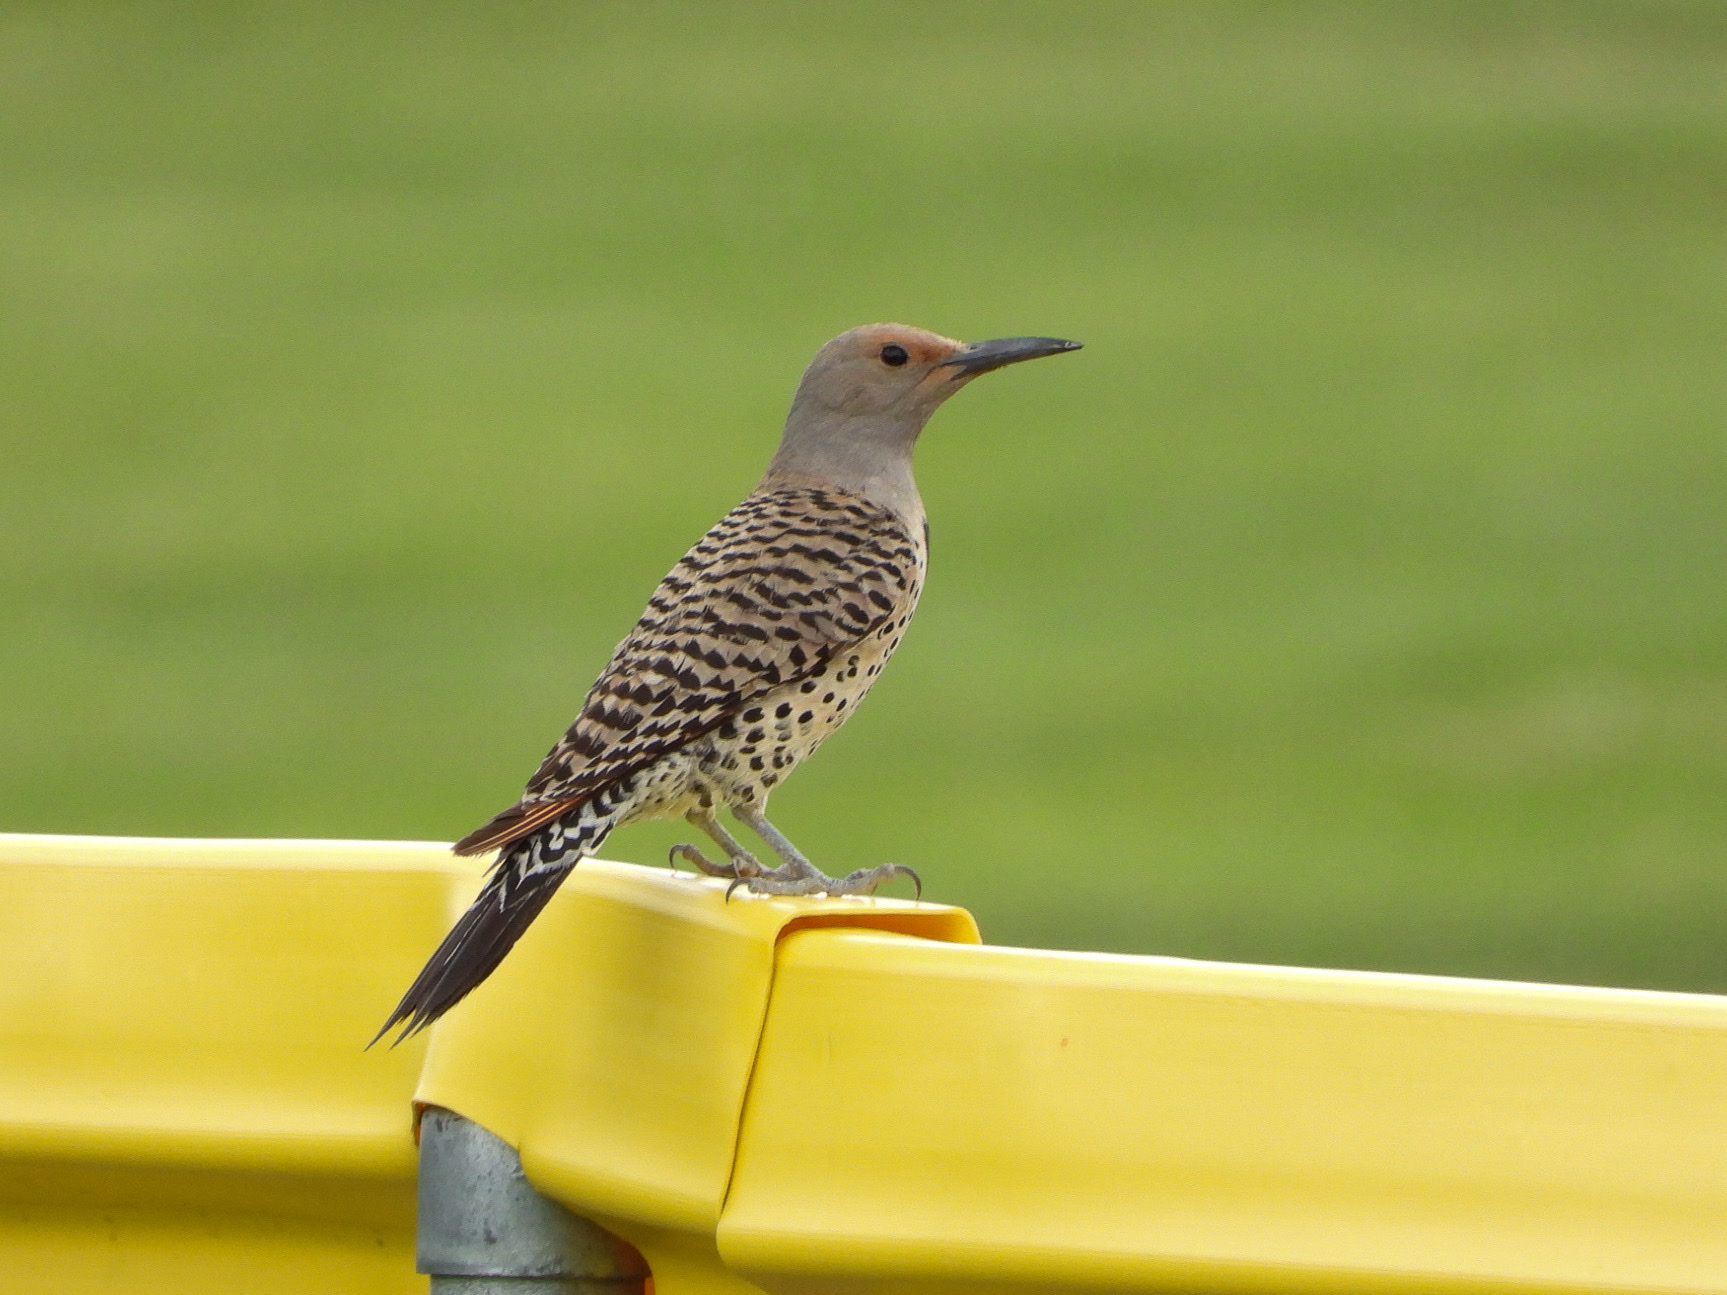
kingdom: Animalia
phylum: Chordata
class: Aves
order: Piciformes
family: Picidae
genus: Colaptes
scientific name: Colaptes auratus
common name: Northern flicker
